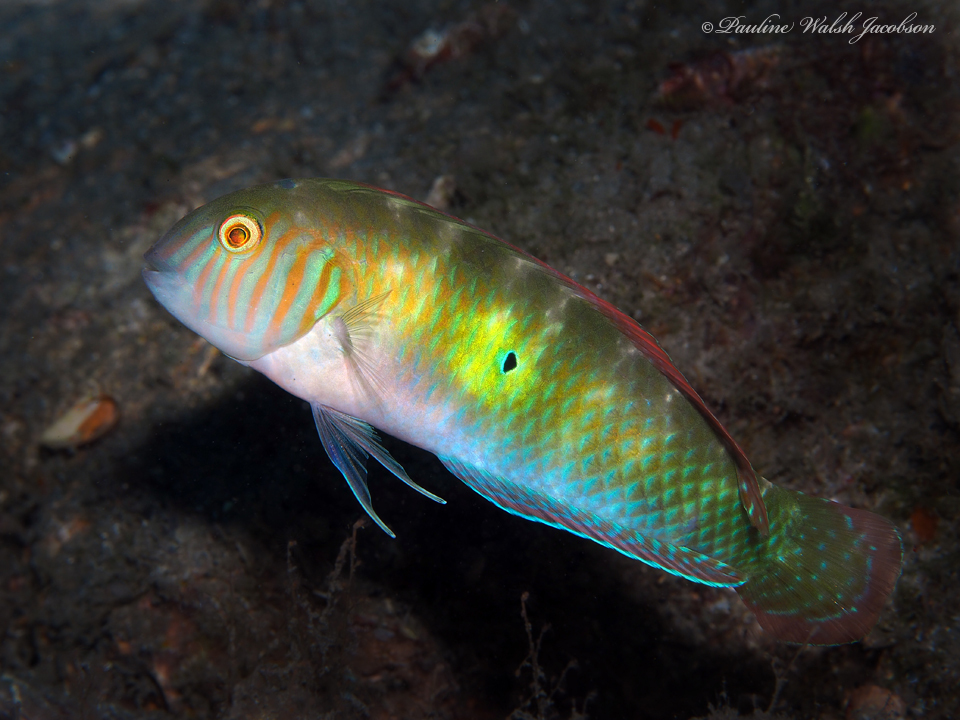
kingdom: Animalia
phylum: Chordata
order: Perciformes
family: Labridae
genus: Xyrichtys
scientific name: Xyrichtys splendens
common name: Green razorfish
